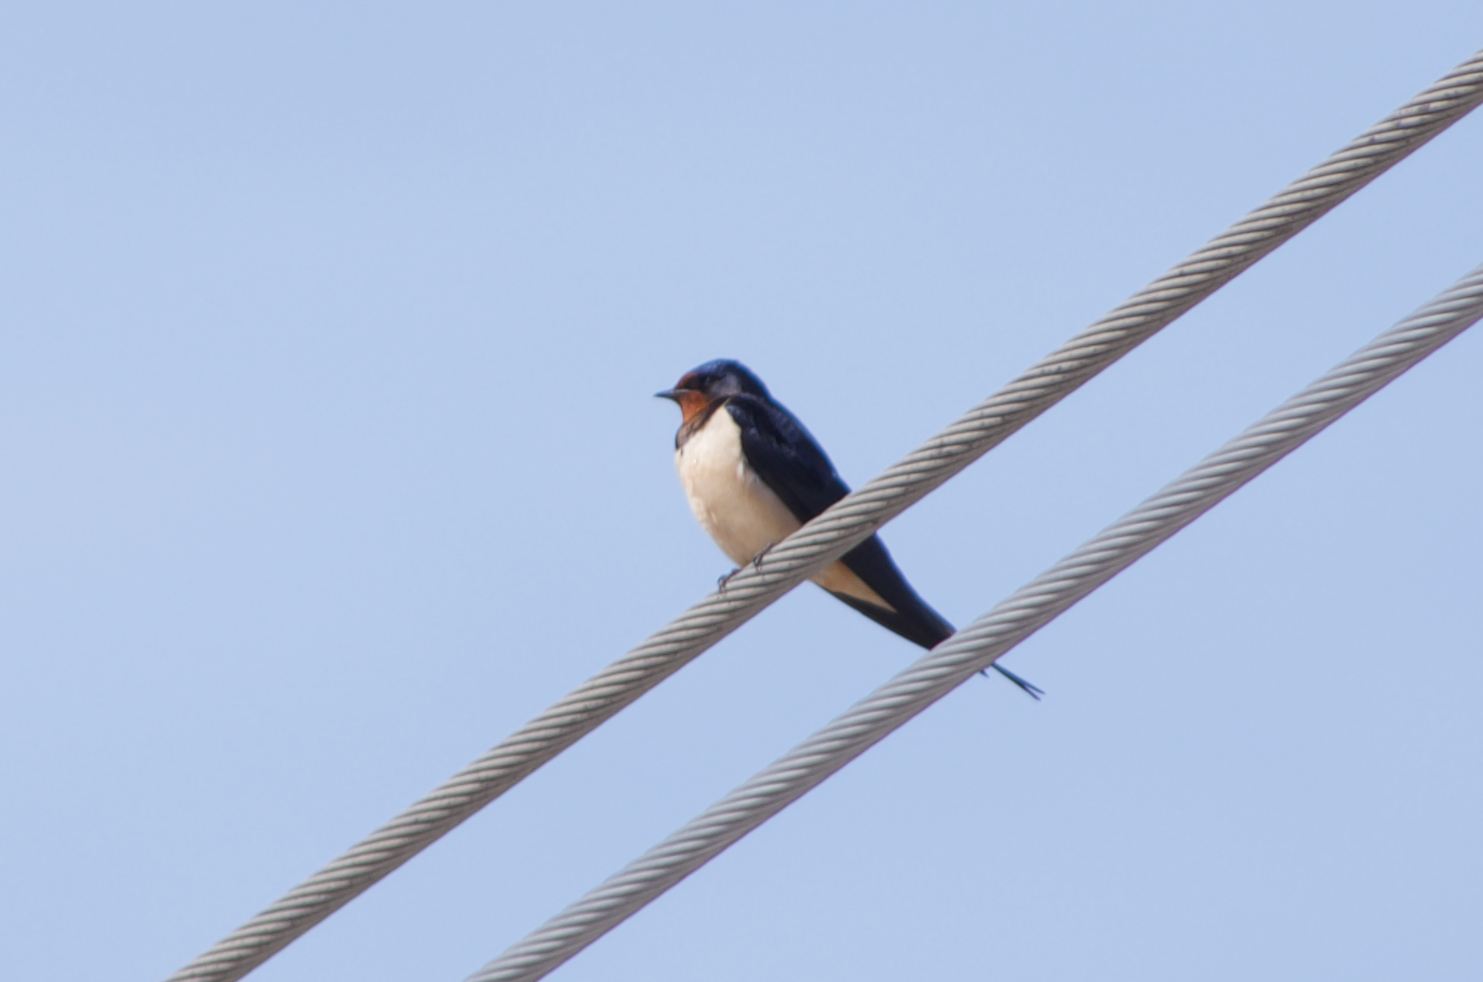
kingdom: Animalia
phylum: Chordata
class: Aves
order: Passeriformes
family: Hirundinidae
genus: Hirundo
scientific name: Hirundo rustica
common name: Barn swallow
